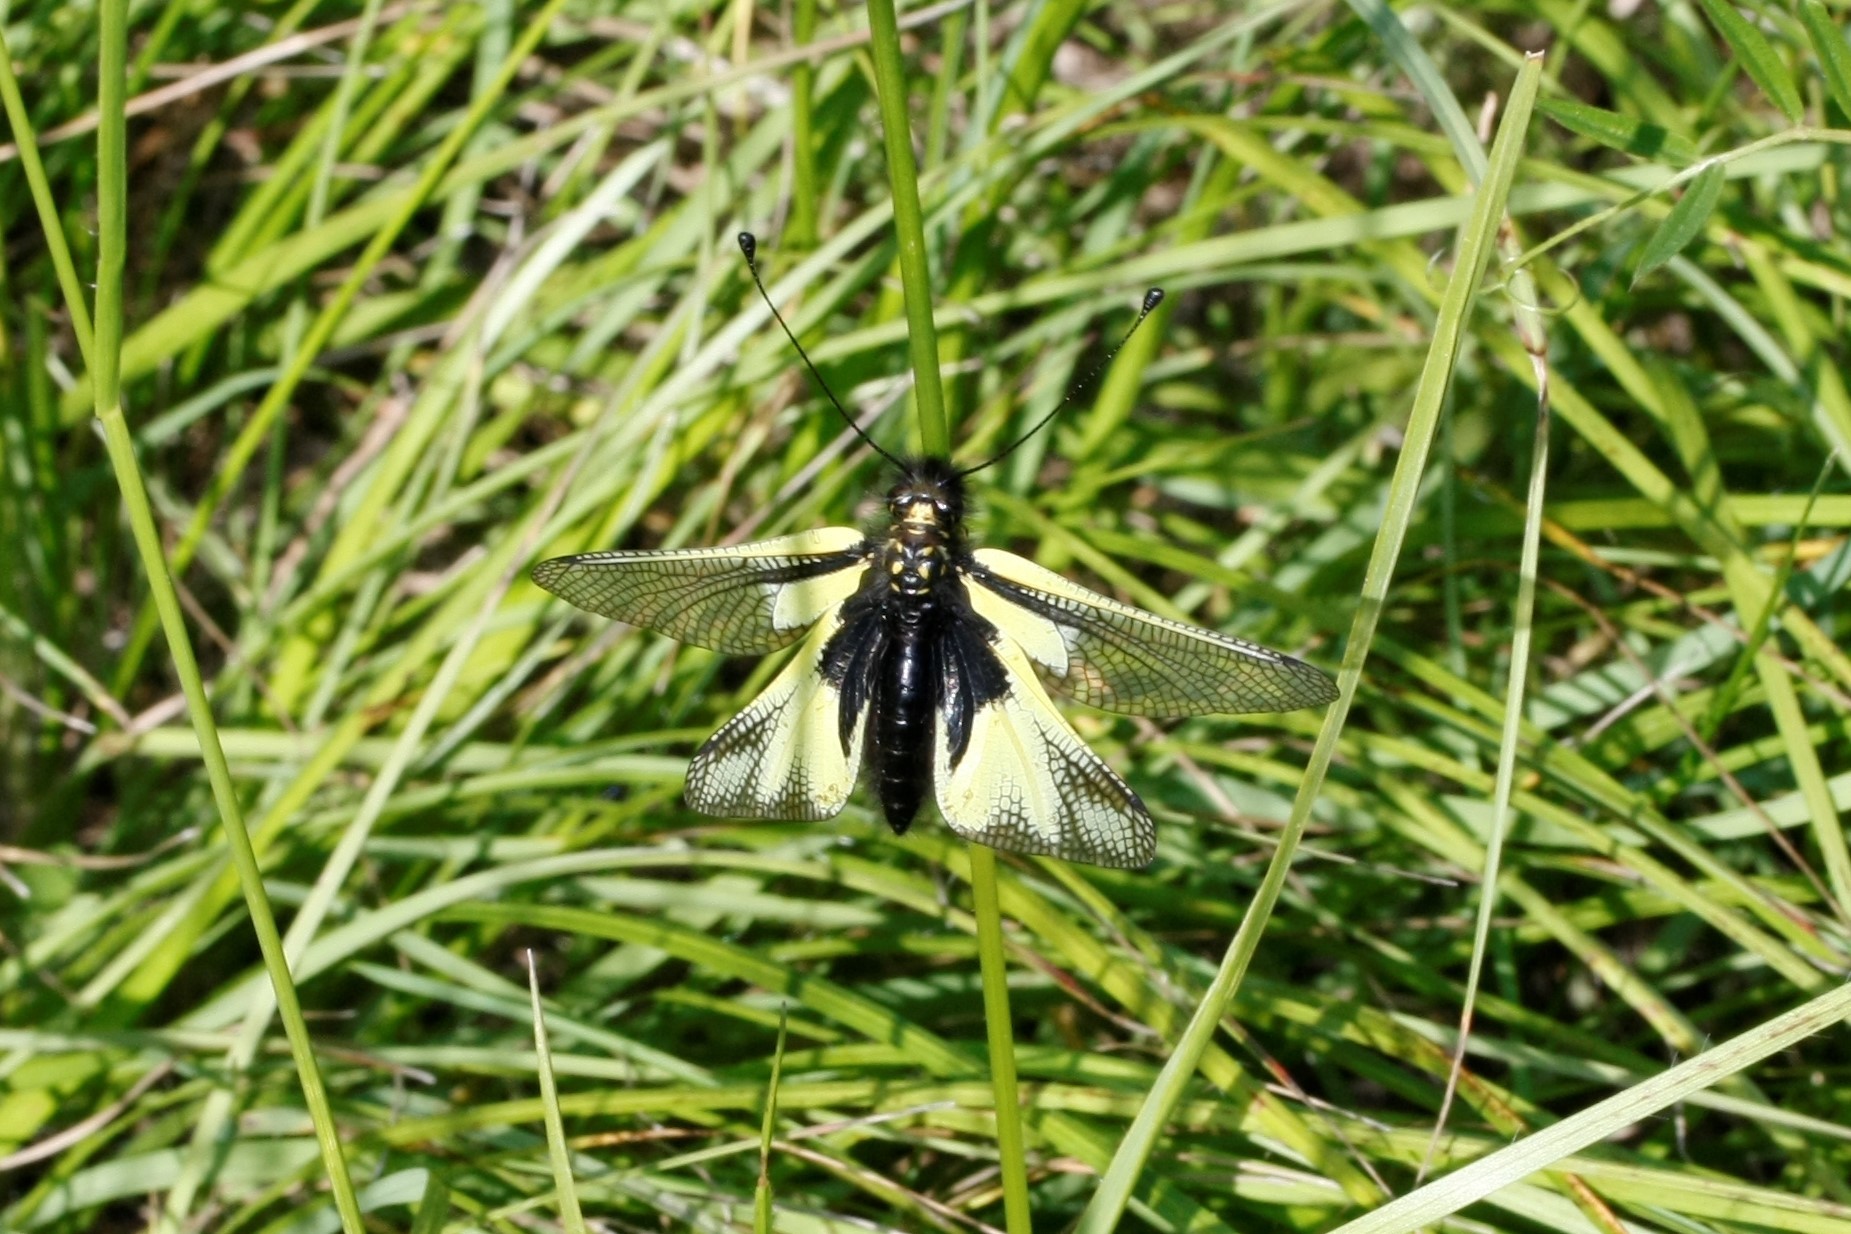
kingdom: Animalia
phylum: Arthropoda
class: Insecta
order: Neuroptera
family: Ascalaphidae
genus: Libelloides
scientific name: Libelloides coccajus
